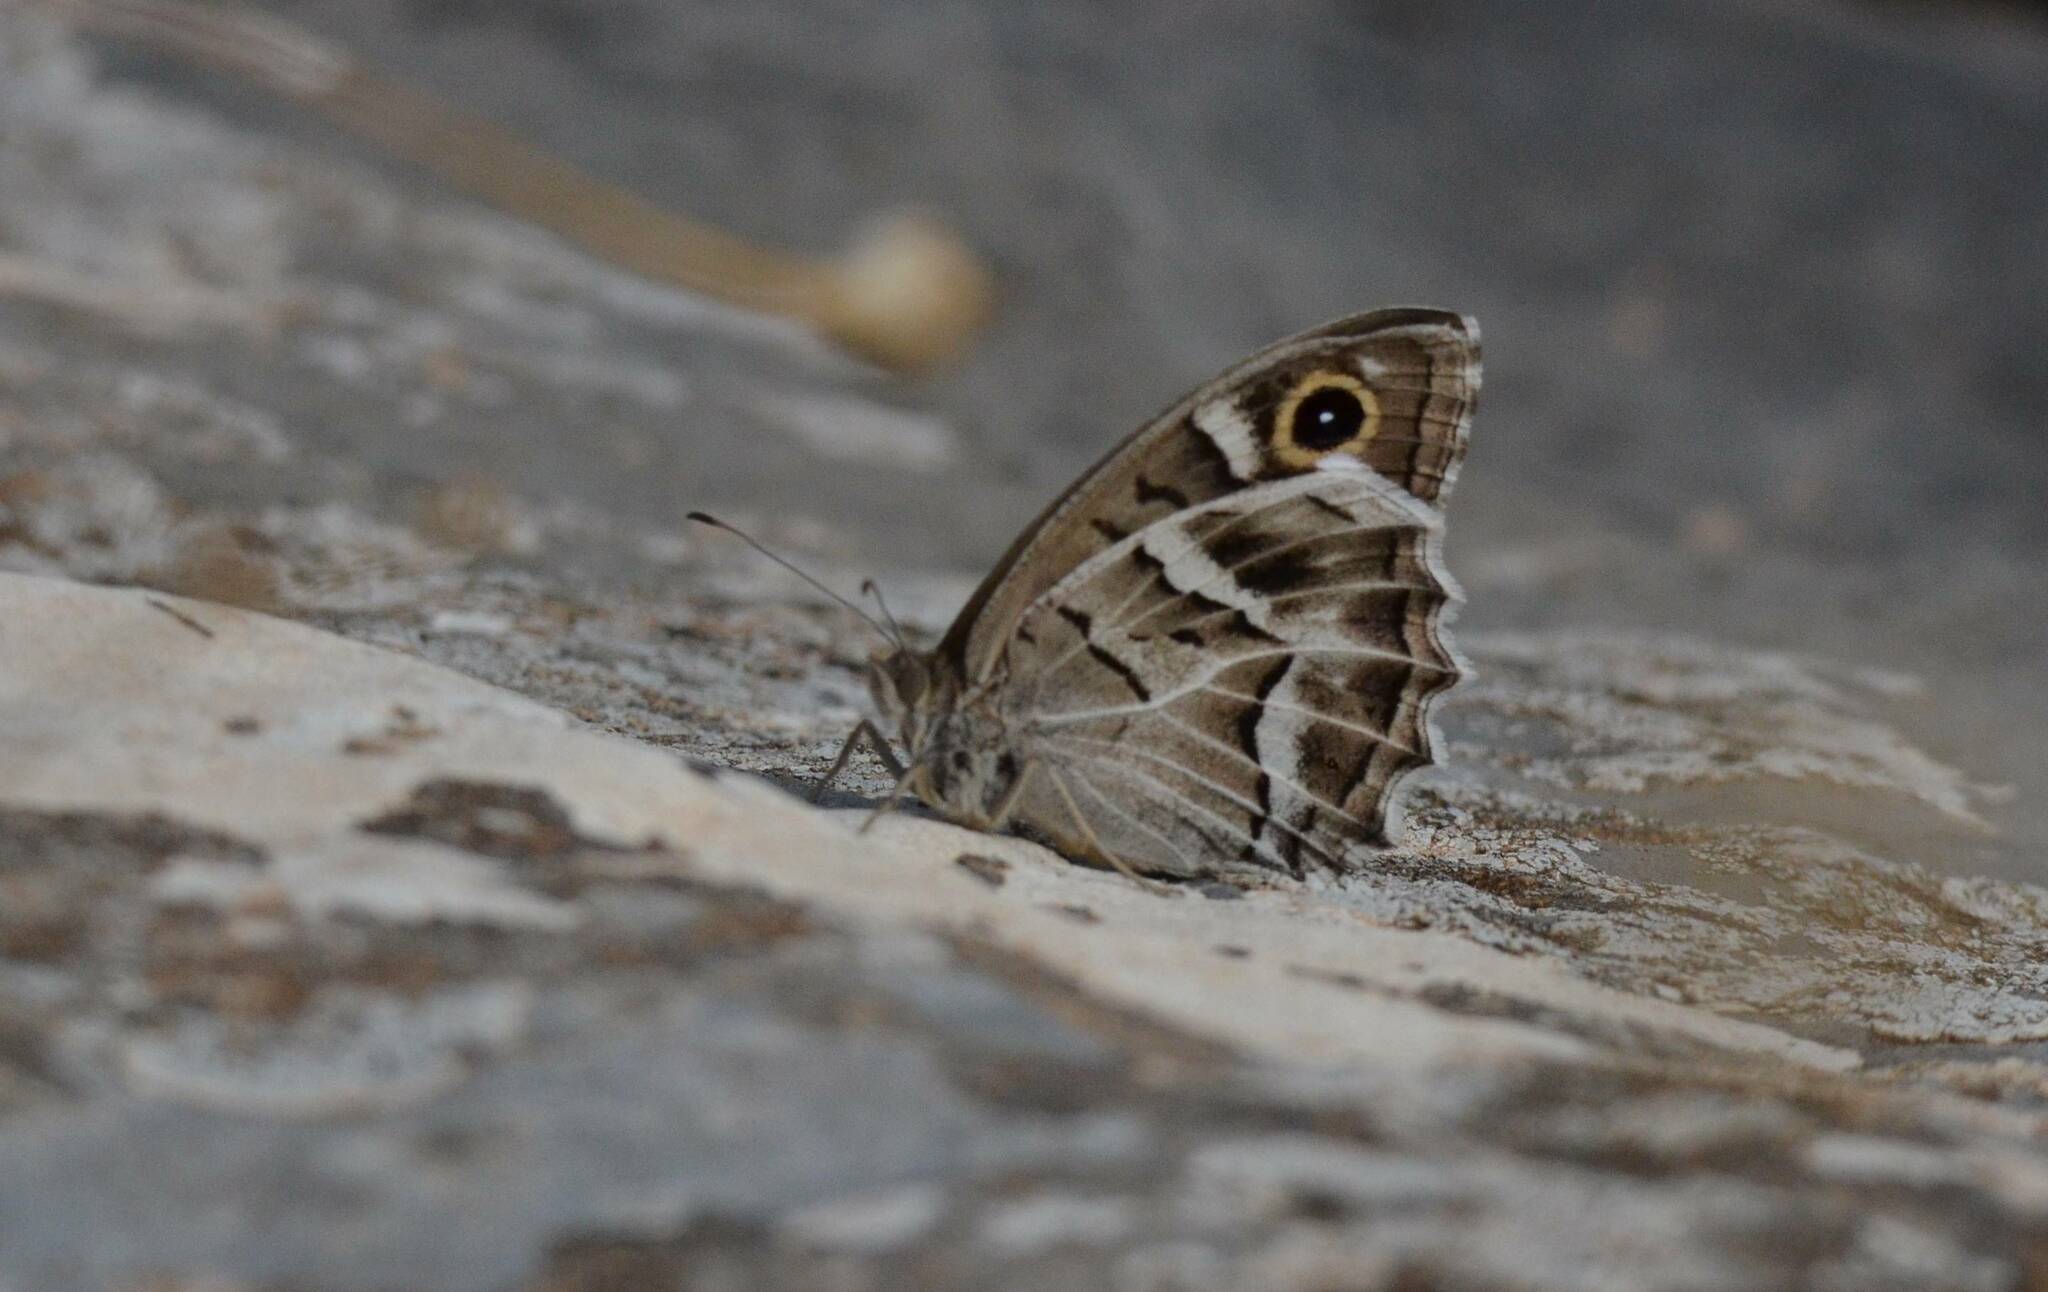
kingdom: Animalia
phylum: Arthropoda
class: Insecta
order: Lepidoptera
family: Nymphalidae
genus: Hipparchia
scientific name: Hipparchia fidia
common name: Striped grayling
